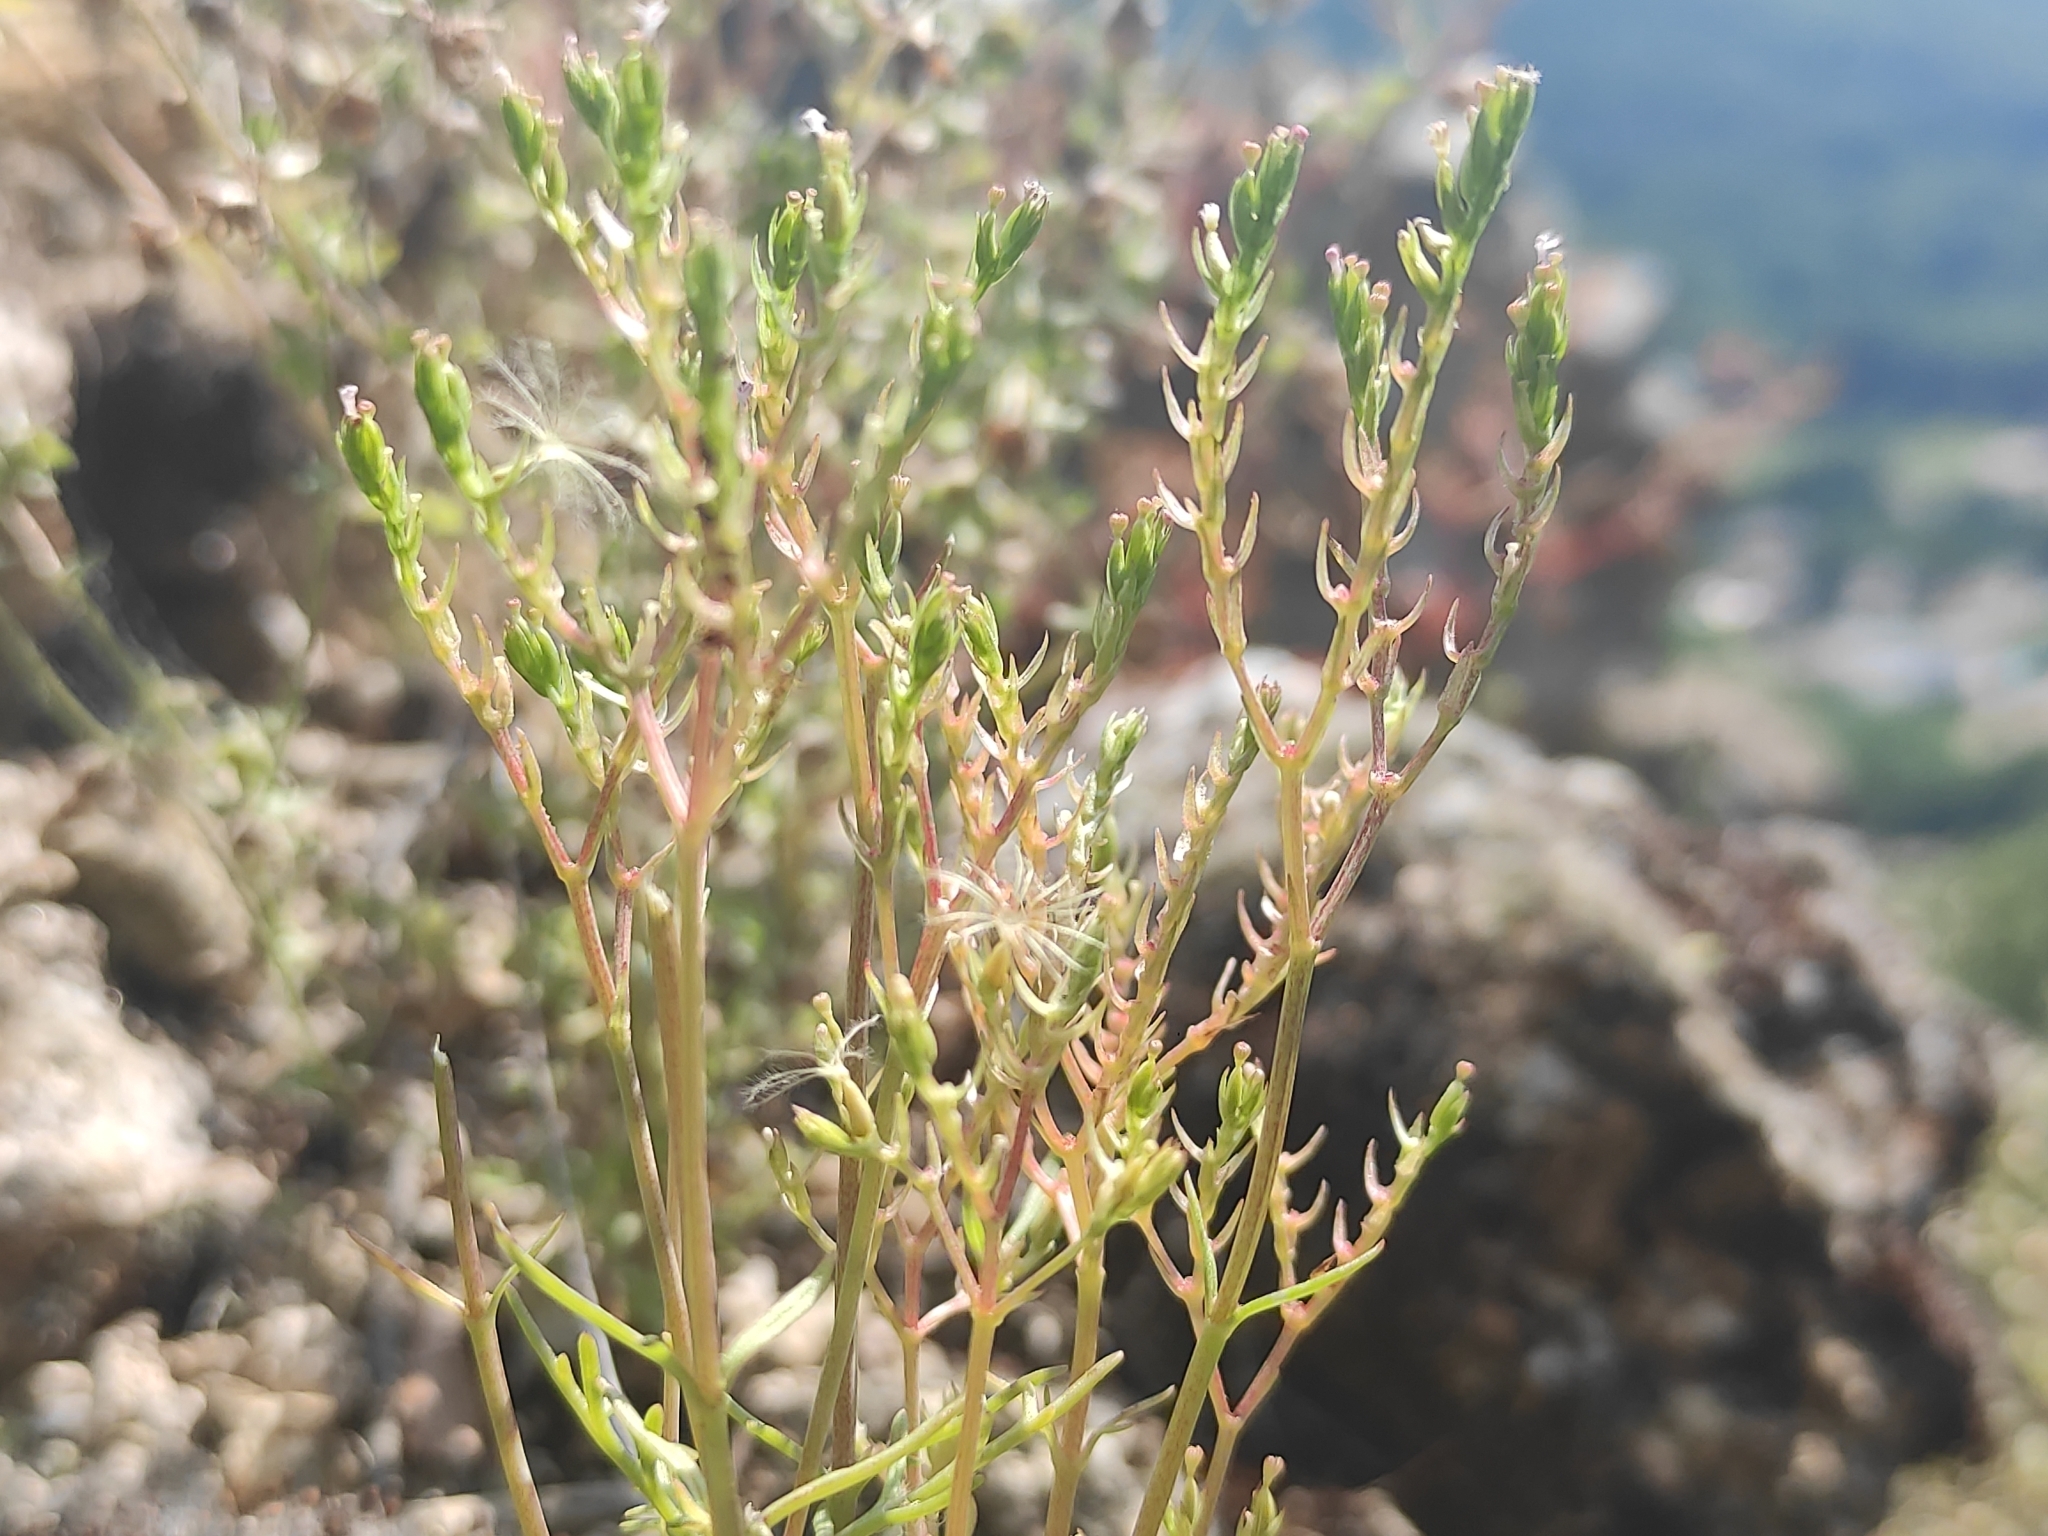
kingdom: Plantae
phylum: Tracheophyta
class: Magnoliopsida
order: Dipsacales
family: Caprifoliaceae
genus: Centranthus
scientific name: Centranthus calcitrapae
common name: Annual valerian
